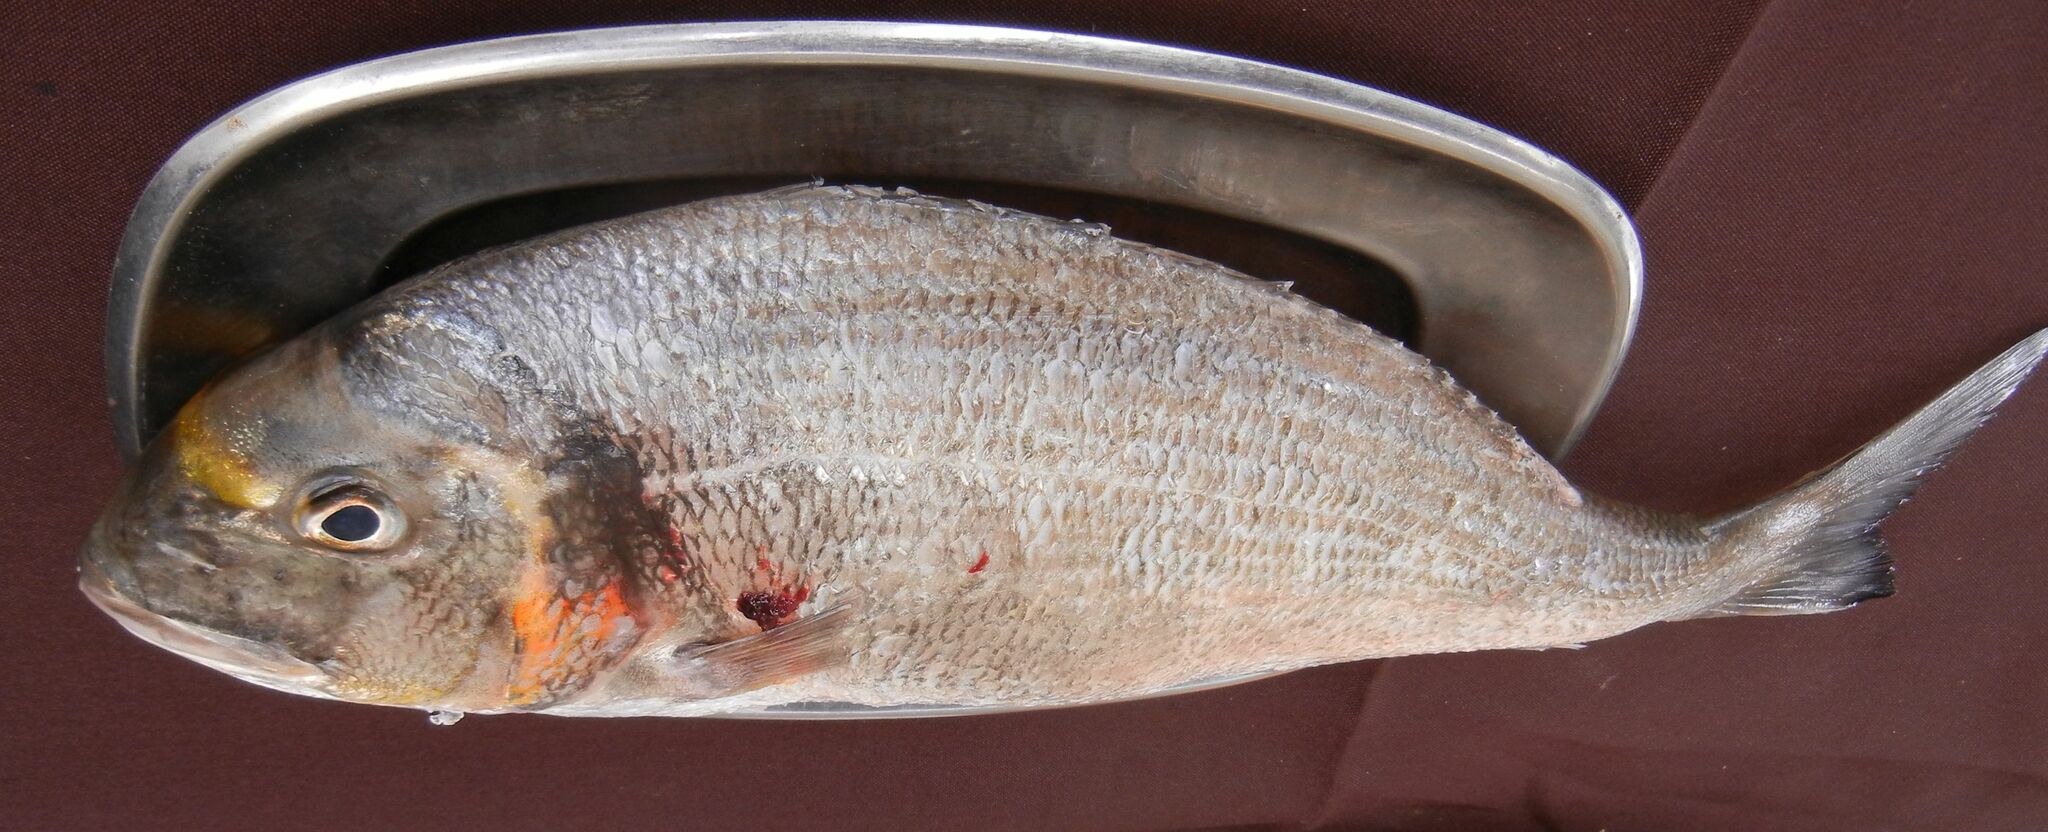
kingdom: Animalia
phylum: Chordata
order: Perciformes
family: Sparidae
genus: Sparus
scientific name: Sparus aurata
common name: Gilthead
